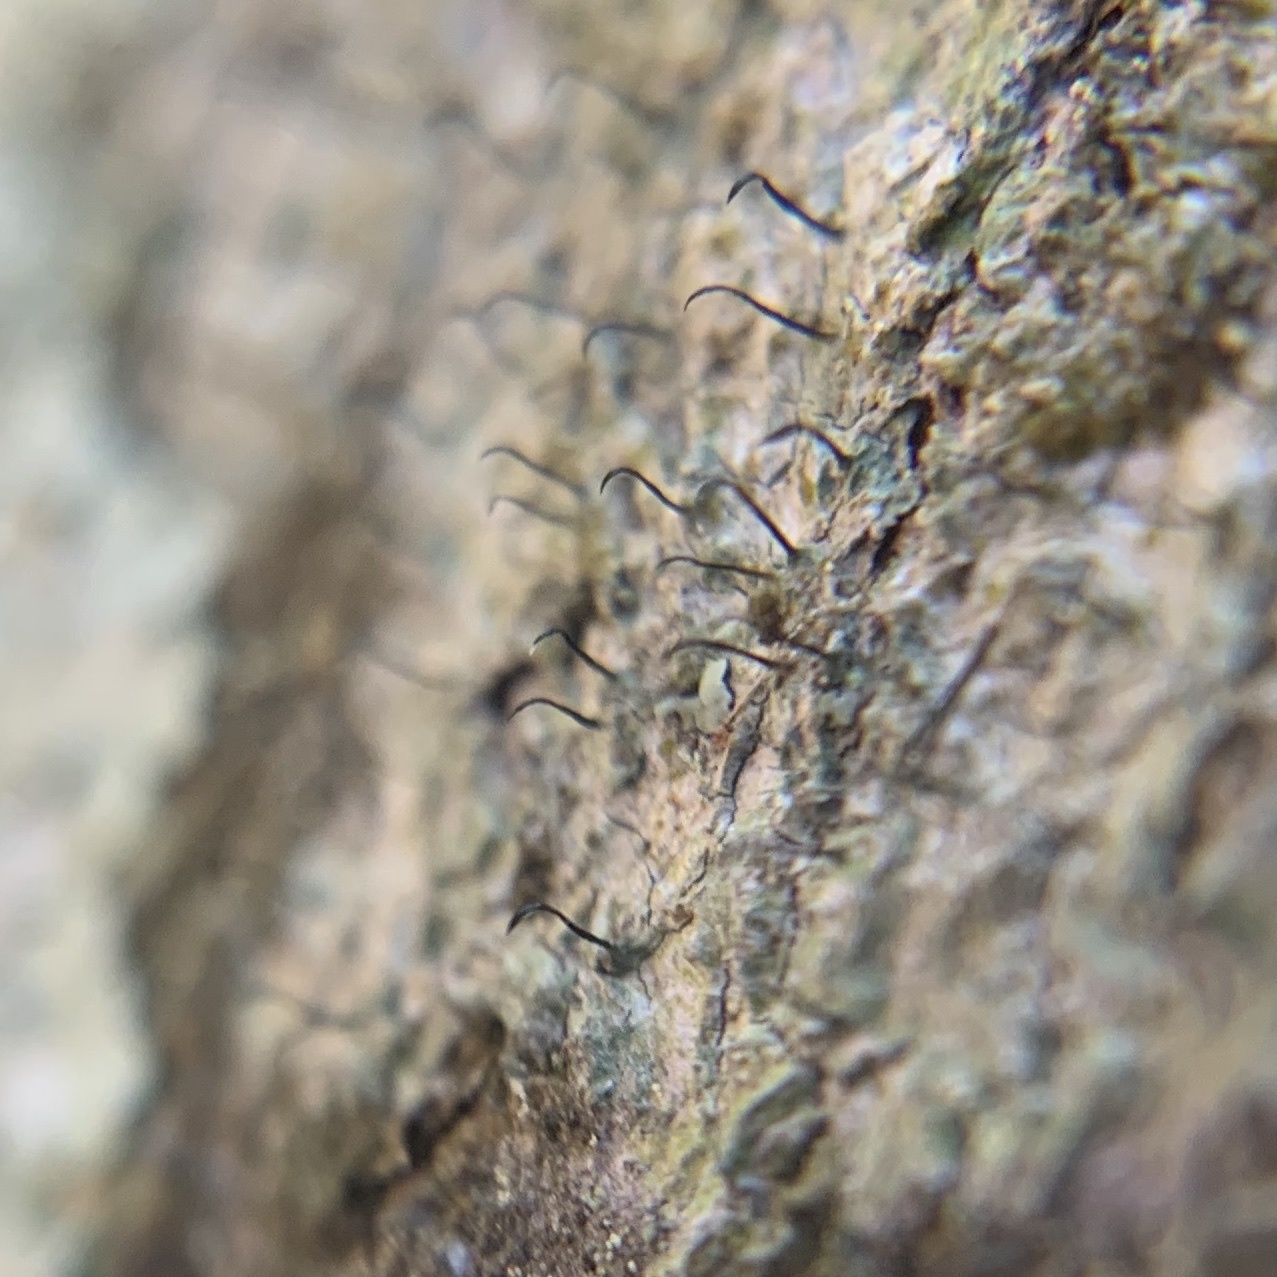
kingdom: Fungi
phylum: Ascomycota
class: Lecanoromycetes
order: Ostropales
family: Gomphillaceae
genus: Gyalideopsis
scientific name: Gyalideopsis buckii
